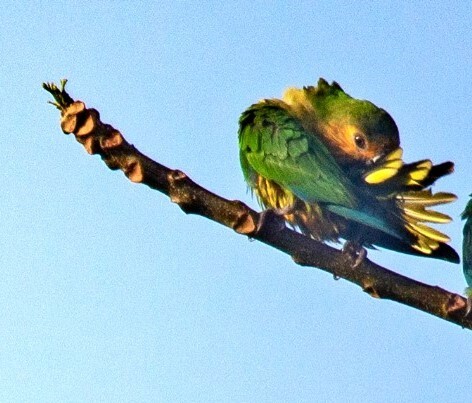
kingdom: Animalia
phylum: Chordata
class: Aves
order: Psittaciformes
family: Psittacidae
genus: Aratinga
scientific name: Aratinga pertinax
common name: Brown-throated parakeet
